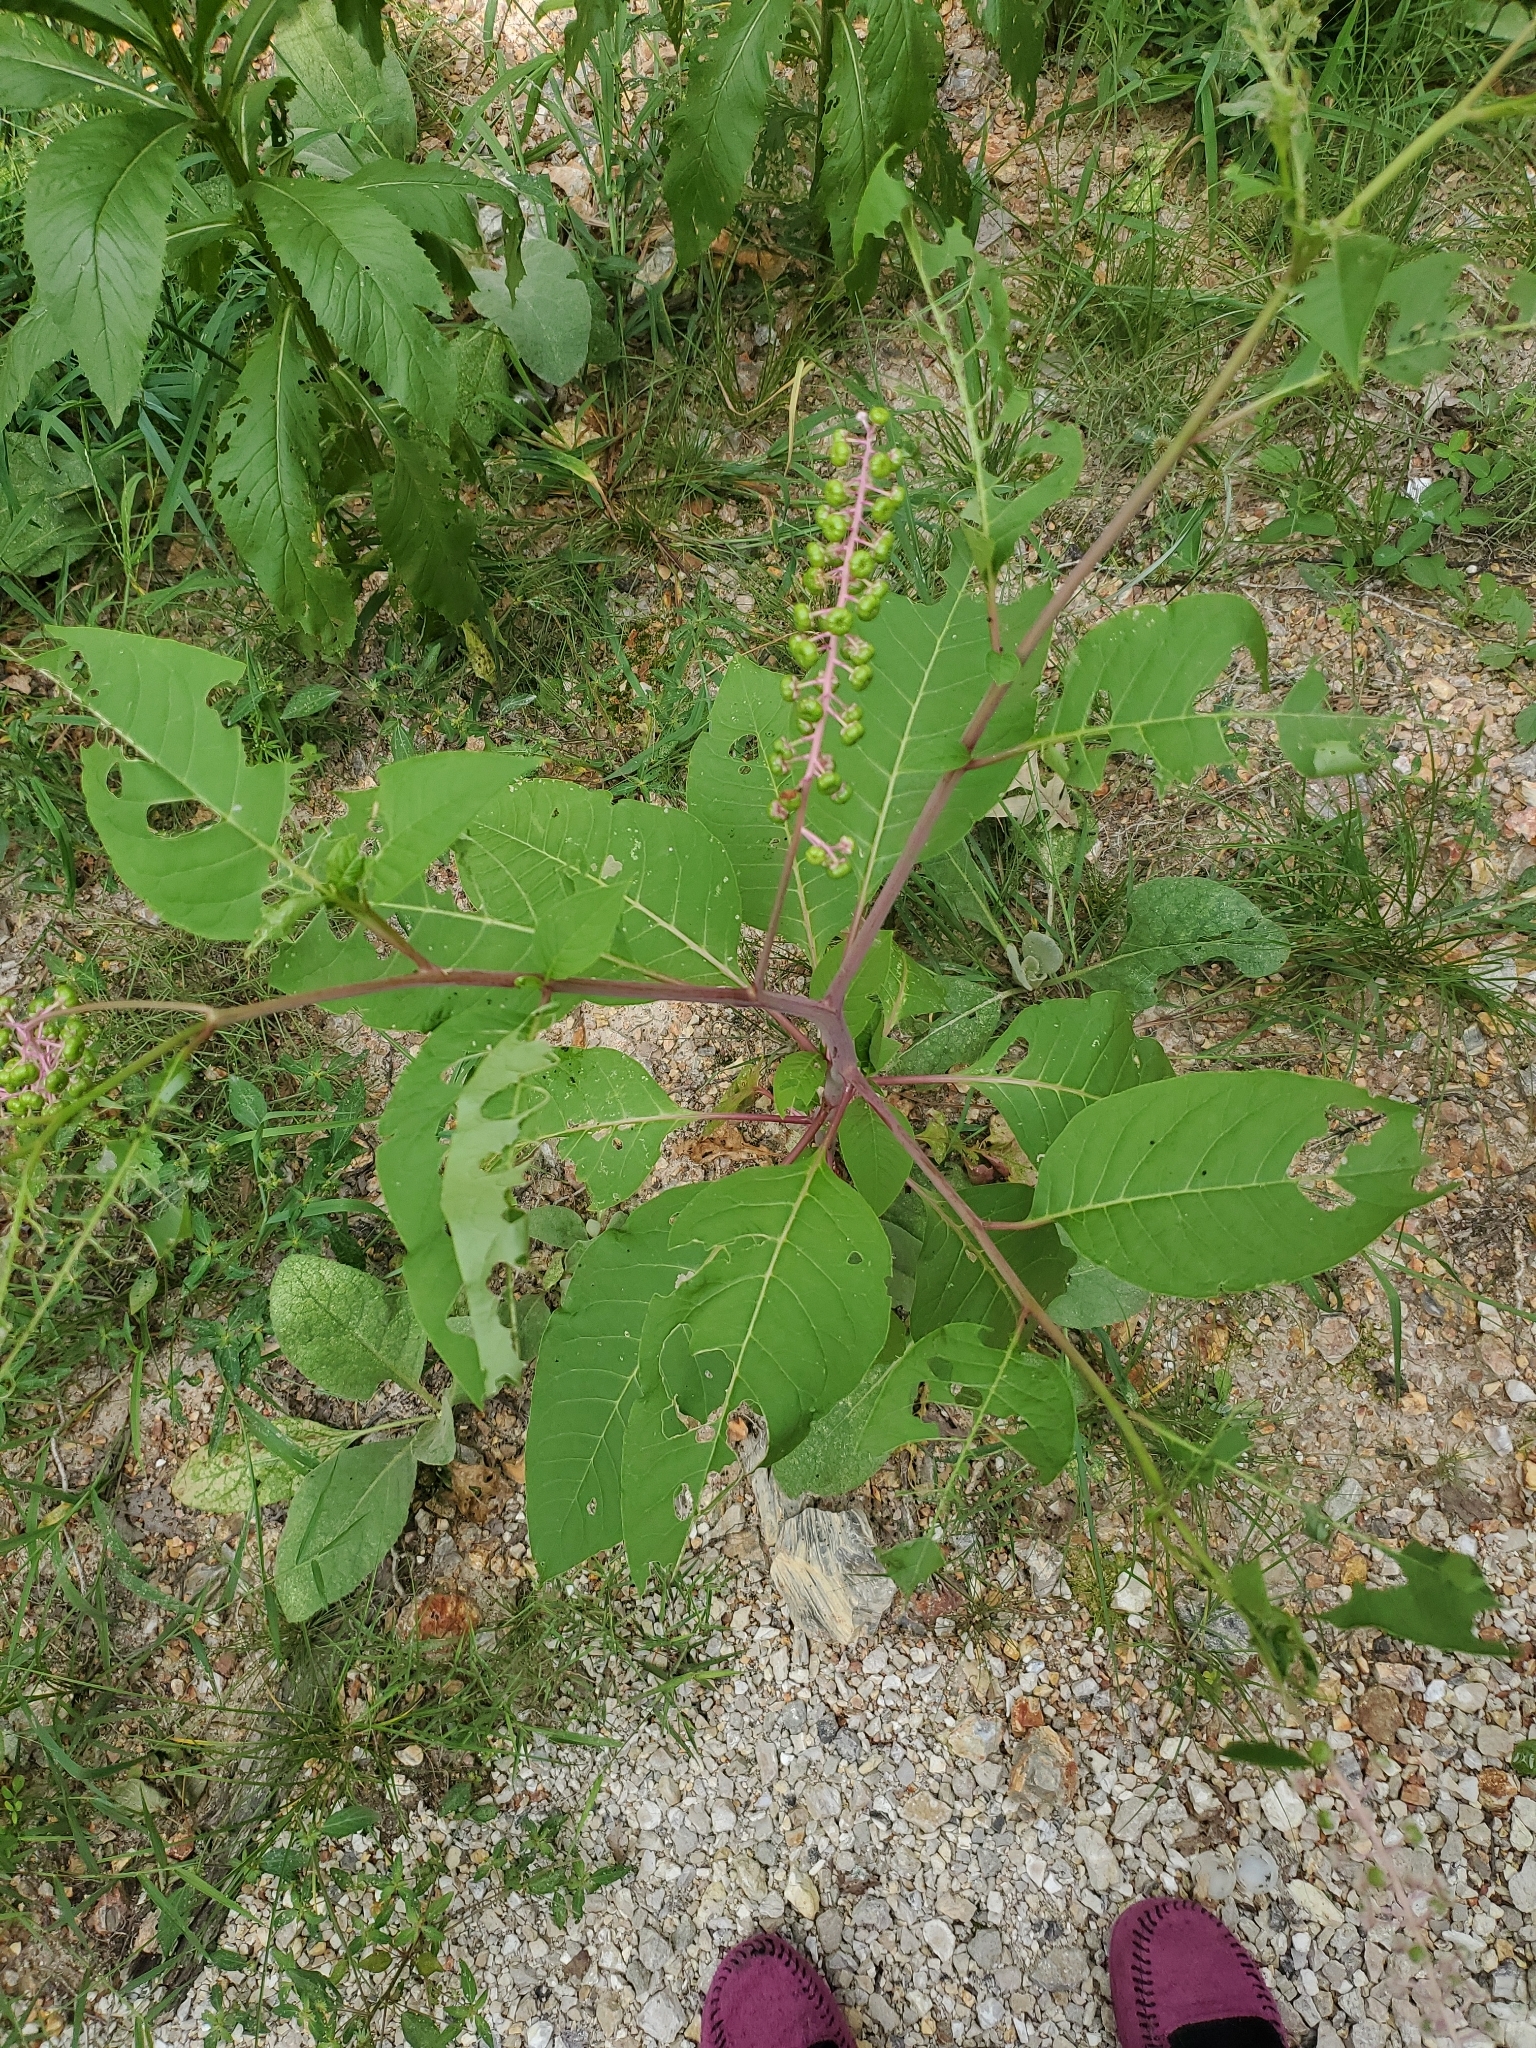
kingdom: Plantae
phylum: Tracheophyta
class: Magnoliopsida
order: Caryophyllales
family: Phytolaccaceae
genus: Phytolacca
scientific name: Phytolacca americana
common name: American pokeweed
